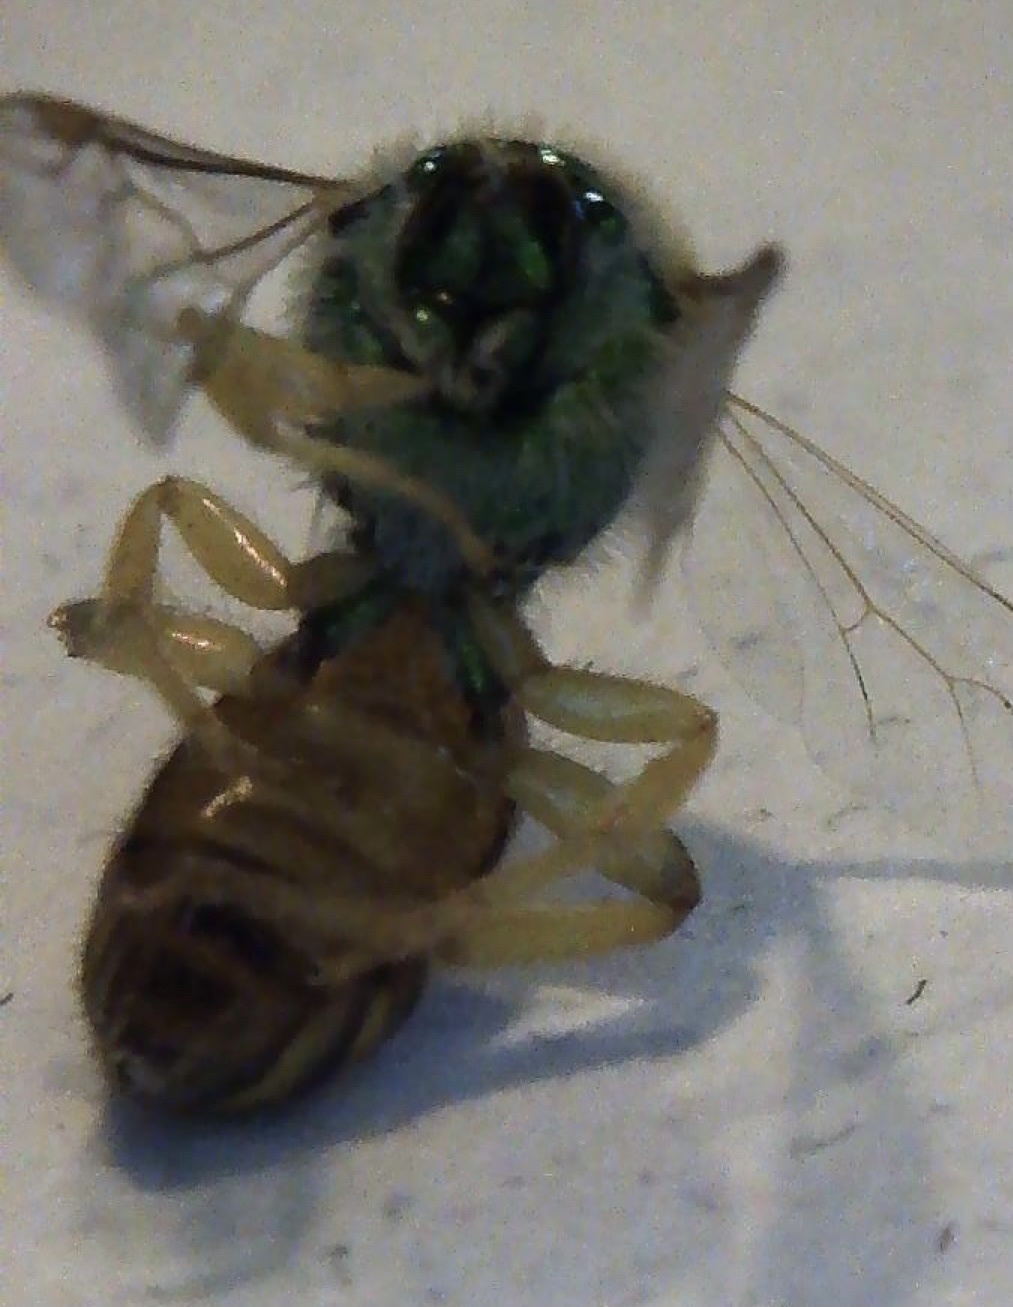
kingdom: Animalia
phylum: Arthropoda
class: Insecta
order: Hymenoptera
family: Halictidae
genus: Agapostemon
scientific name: Agapostemon melliventris
